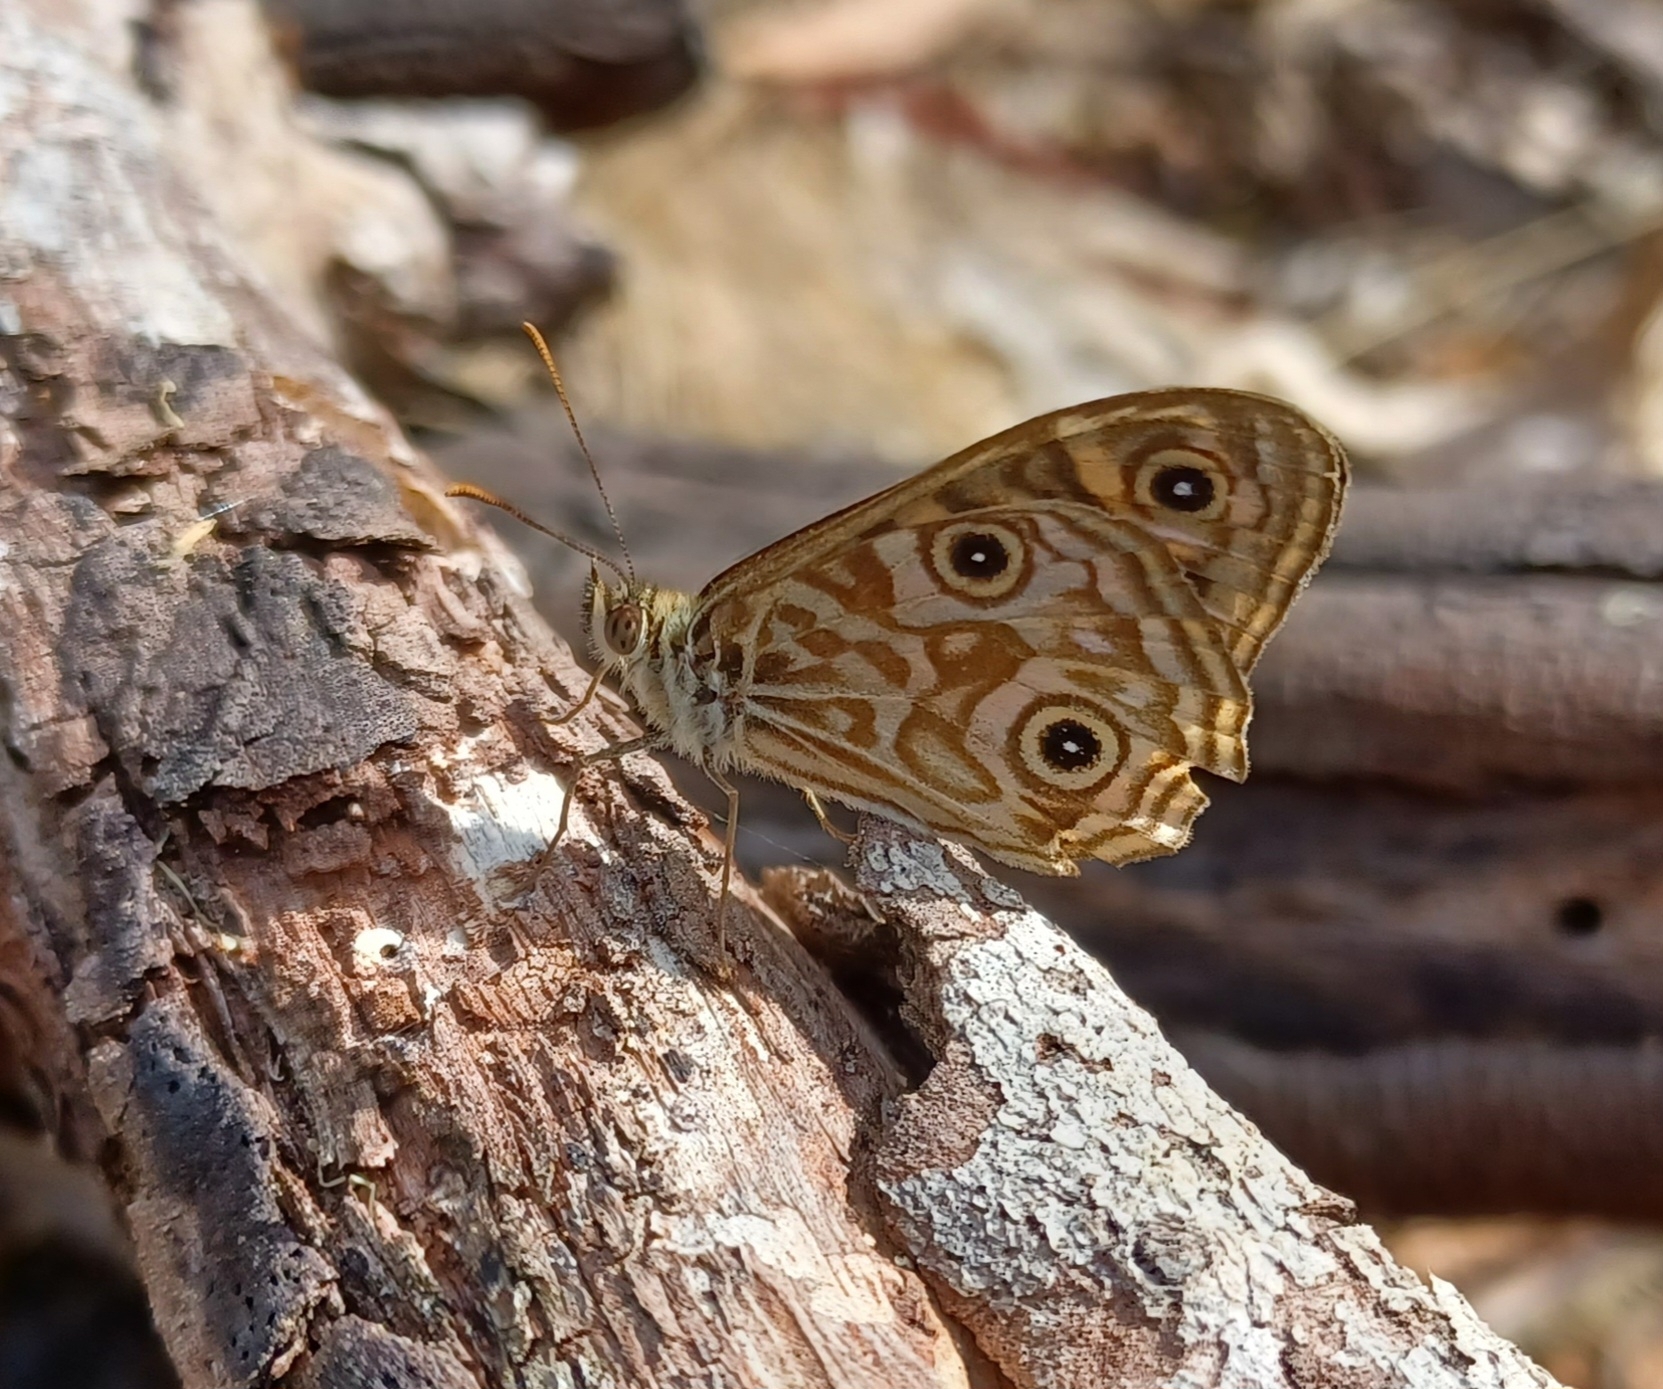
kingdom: Animalia
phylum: Arthropoda
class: Insecta
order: Lepidoptera
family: Nymphalidae
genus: Geitoneura
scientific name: Geitoneura acantha
